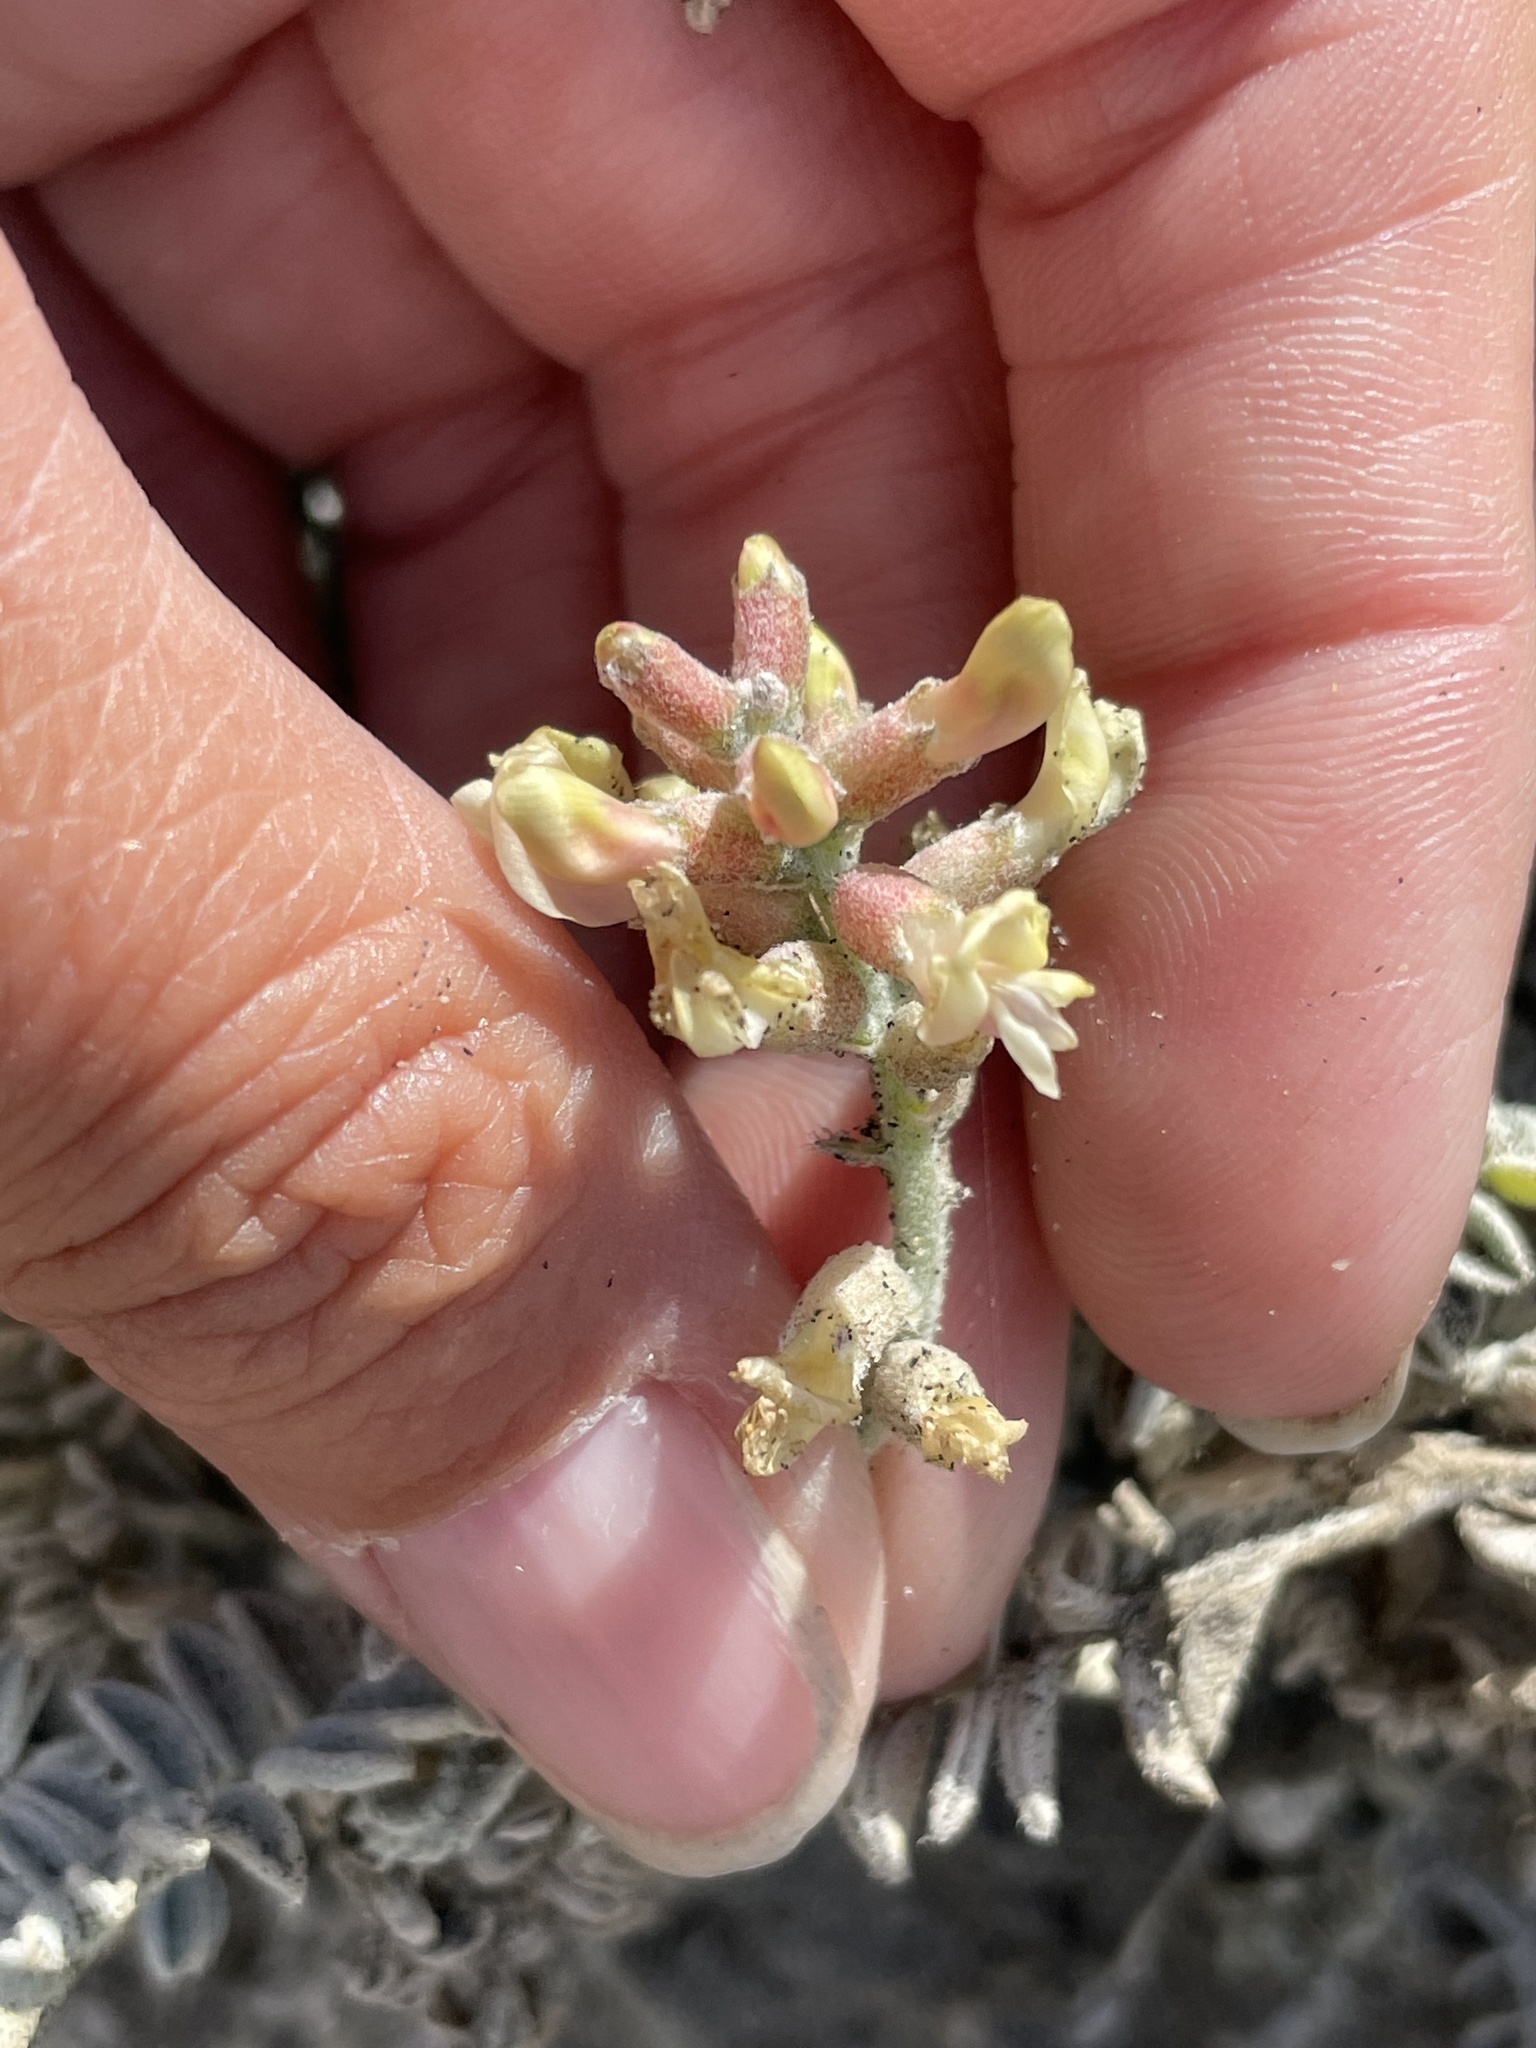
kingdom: Plantae
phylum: Tracheophyta
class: Magnoliopsida
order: Fabales
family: Fabaceae
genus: Astragalus
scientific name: Astragalus anemophilus
